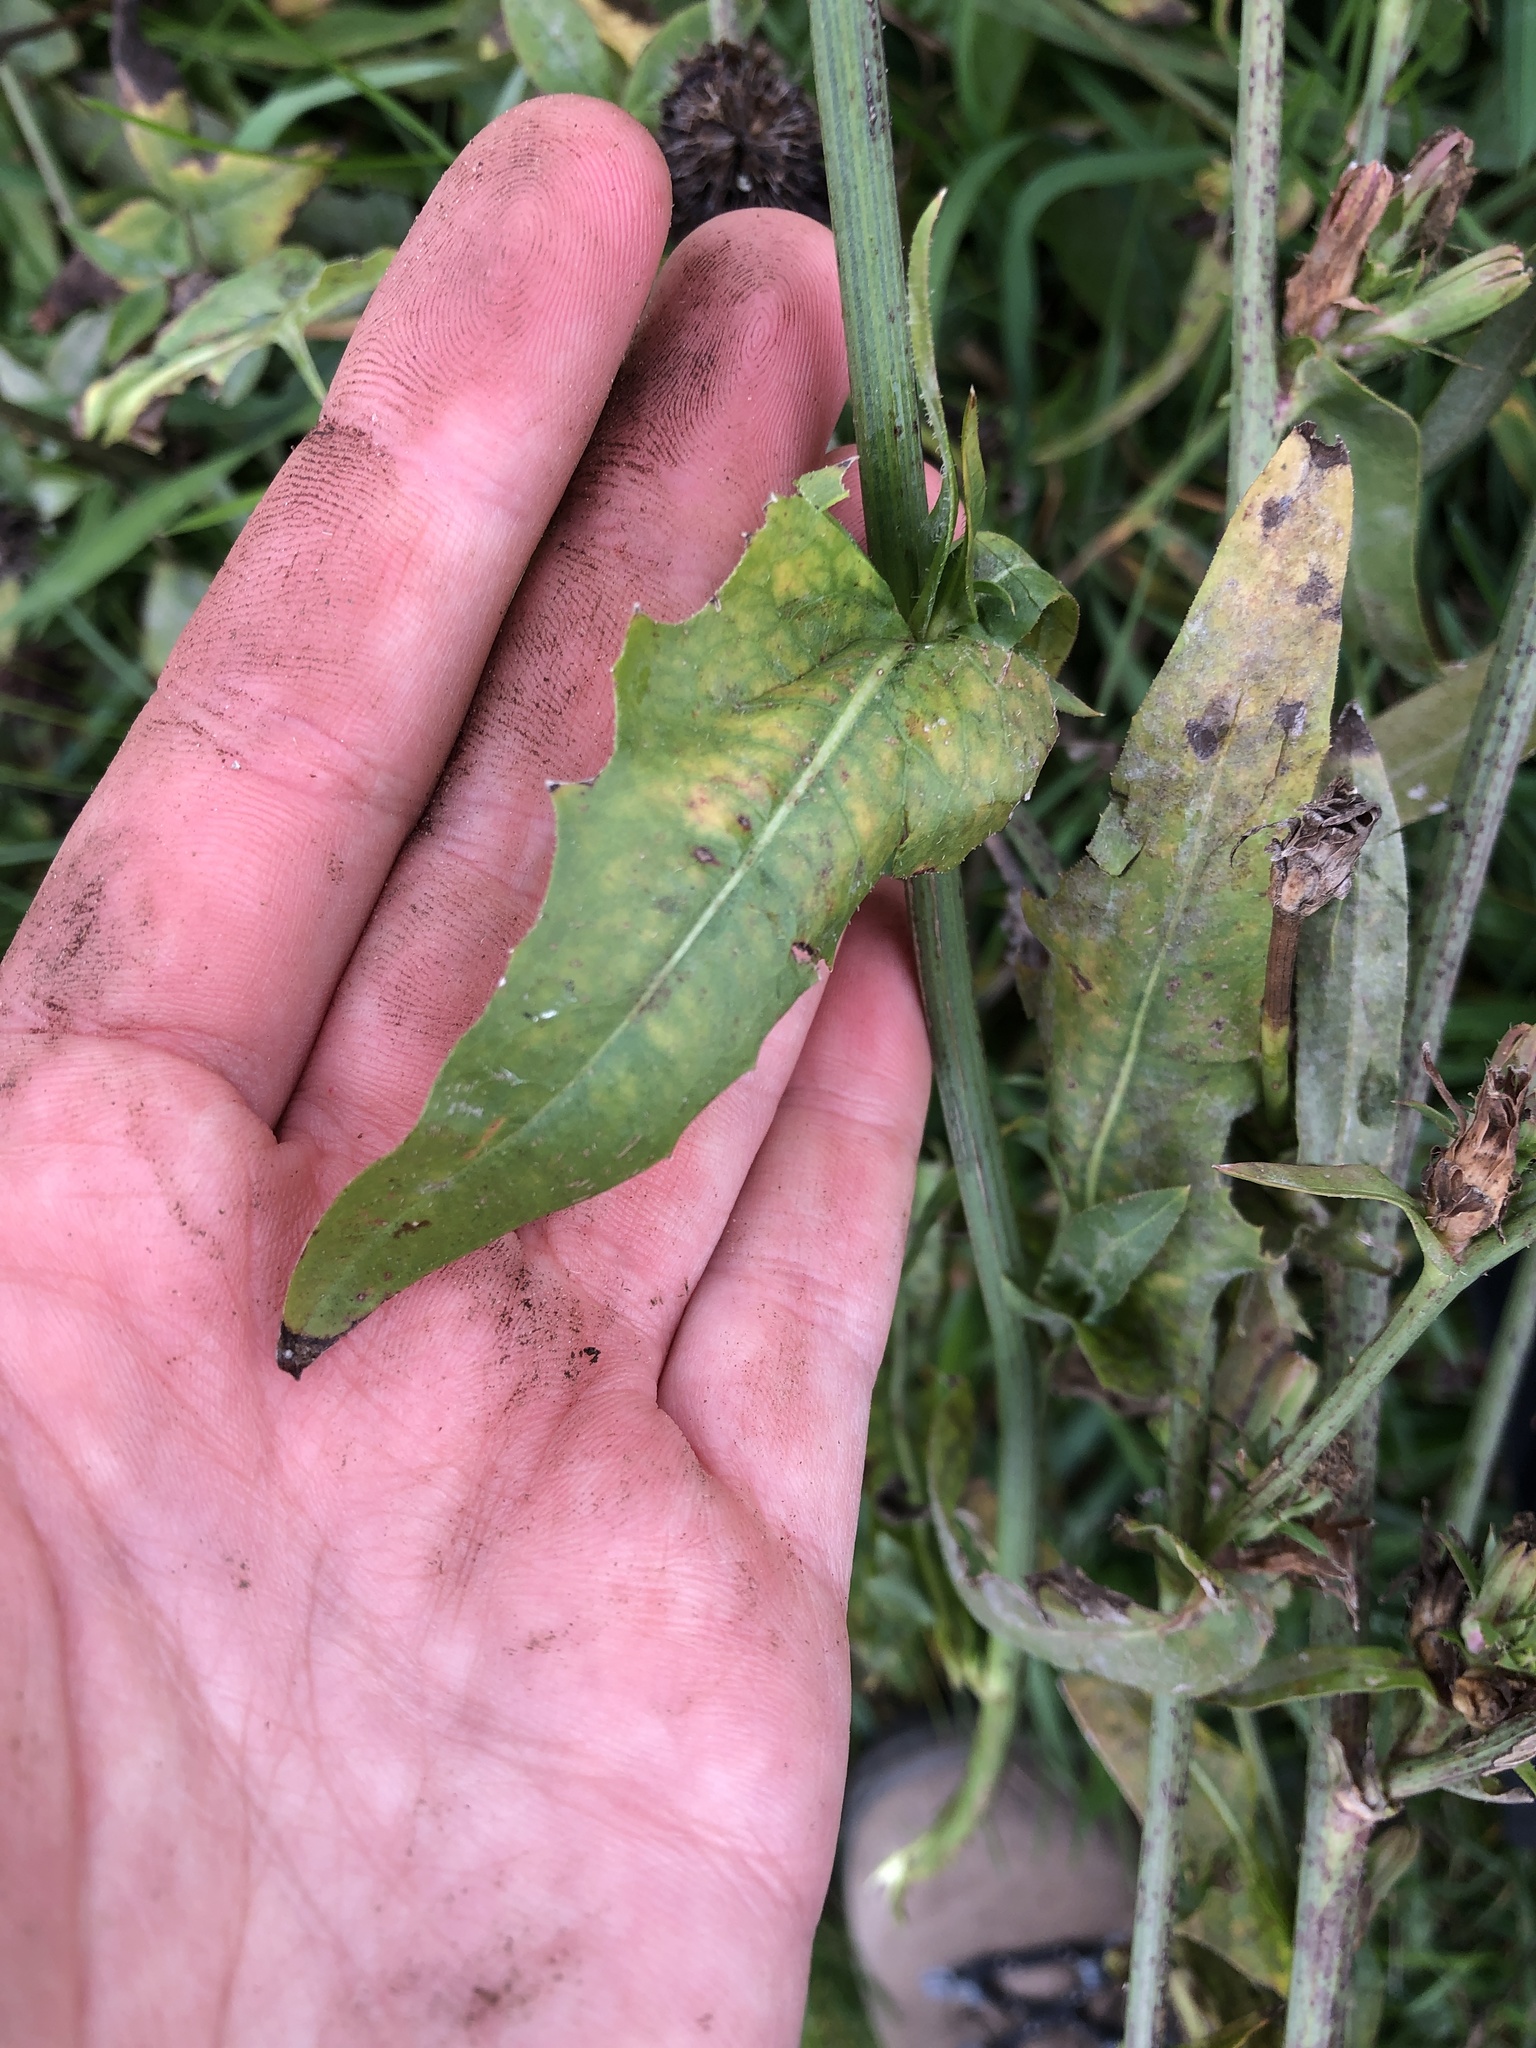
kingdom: Plantae
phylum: Tracheophyta
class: Magnoliopsida
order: Asterales
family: Asteraceae
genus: Cichorium
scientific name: Cichorium intybus
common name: Chicory
